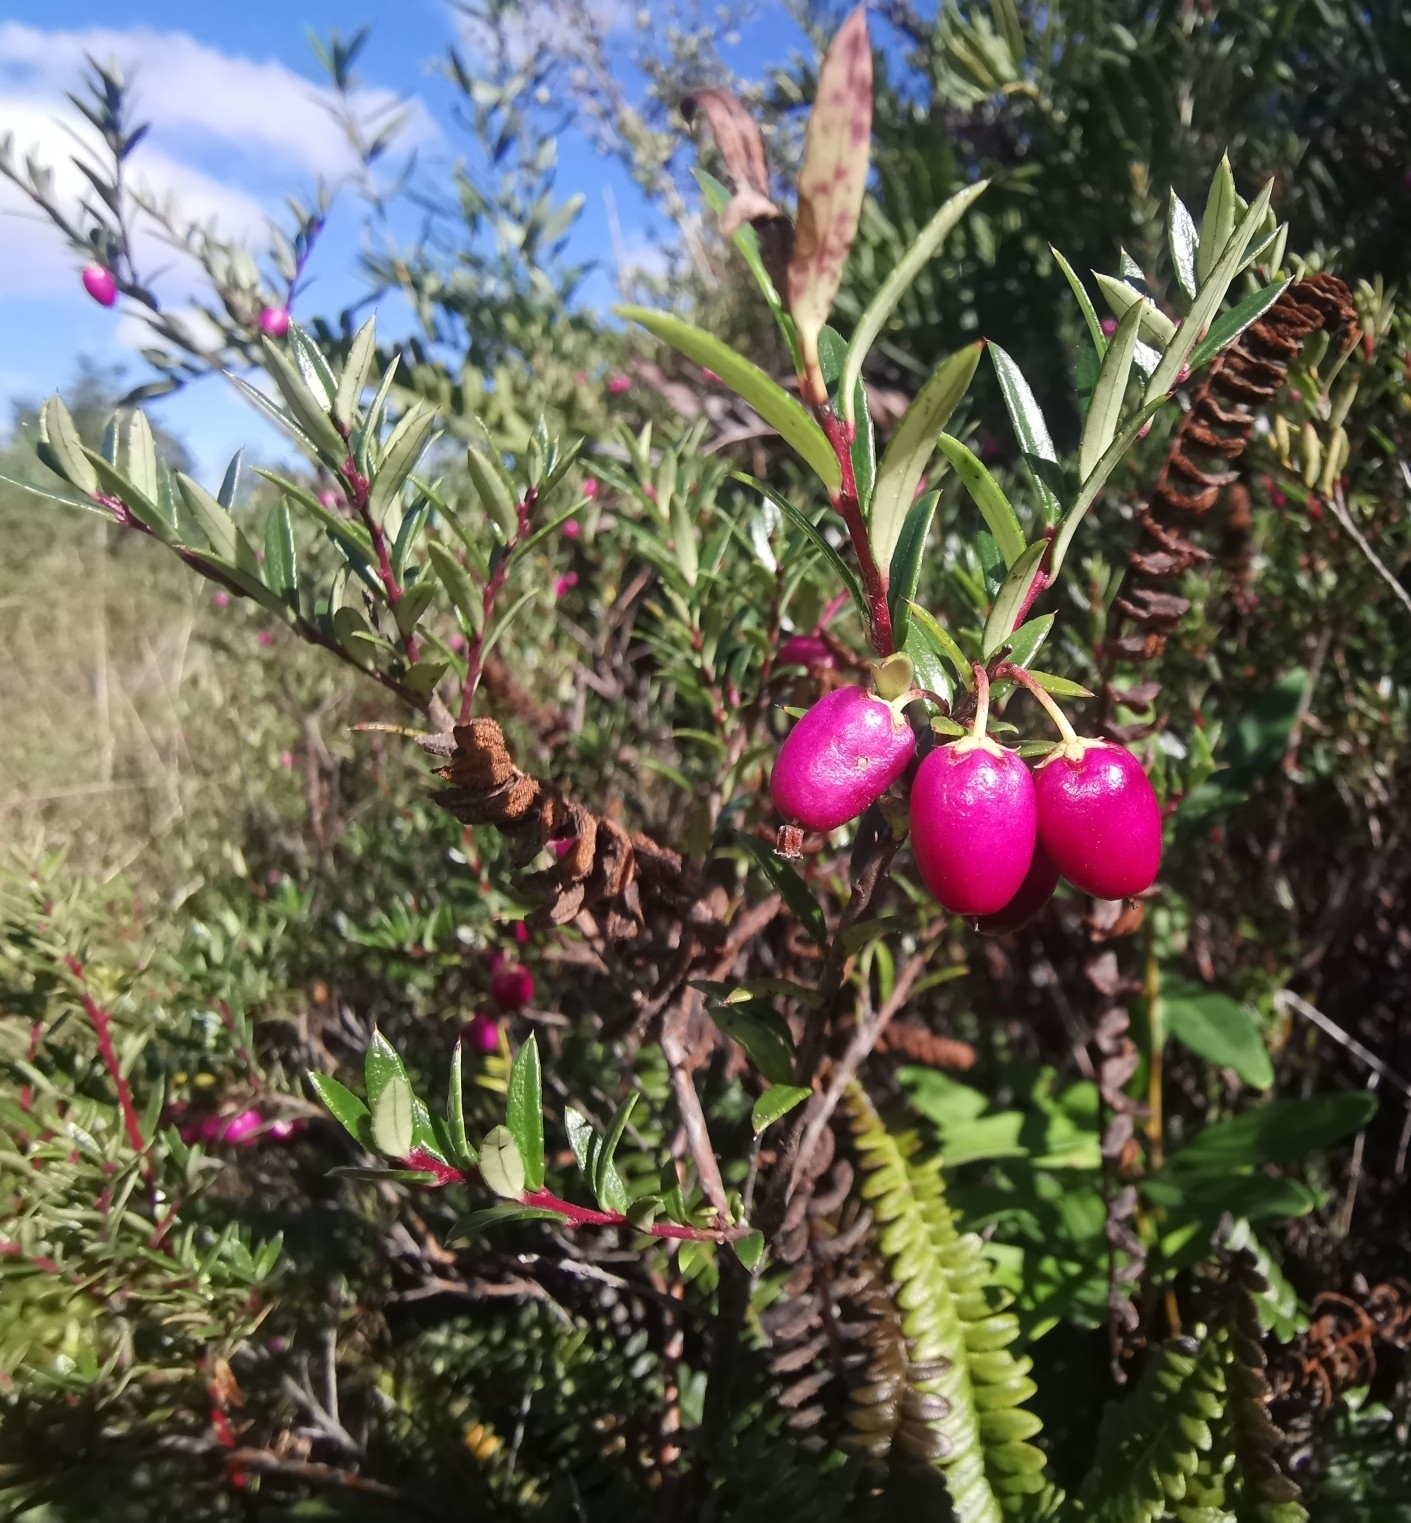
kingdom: Plantae
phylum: Tracheophyta
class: Magnoliopsida
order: Ericales
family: Ericaceae
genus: Gaultheria
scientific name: Gaultheria linifolia
